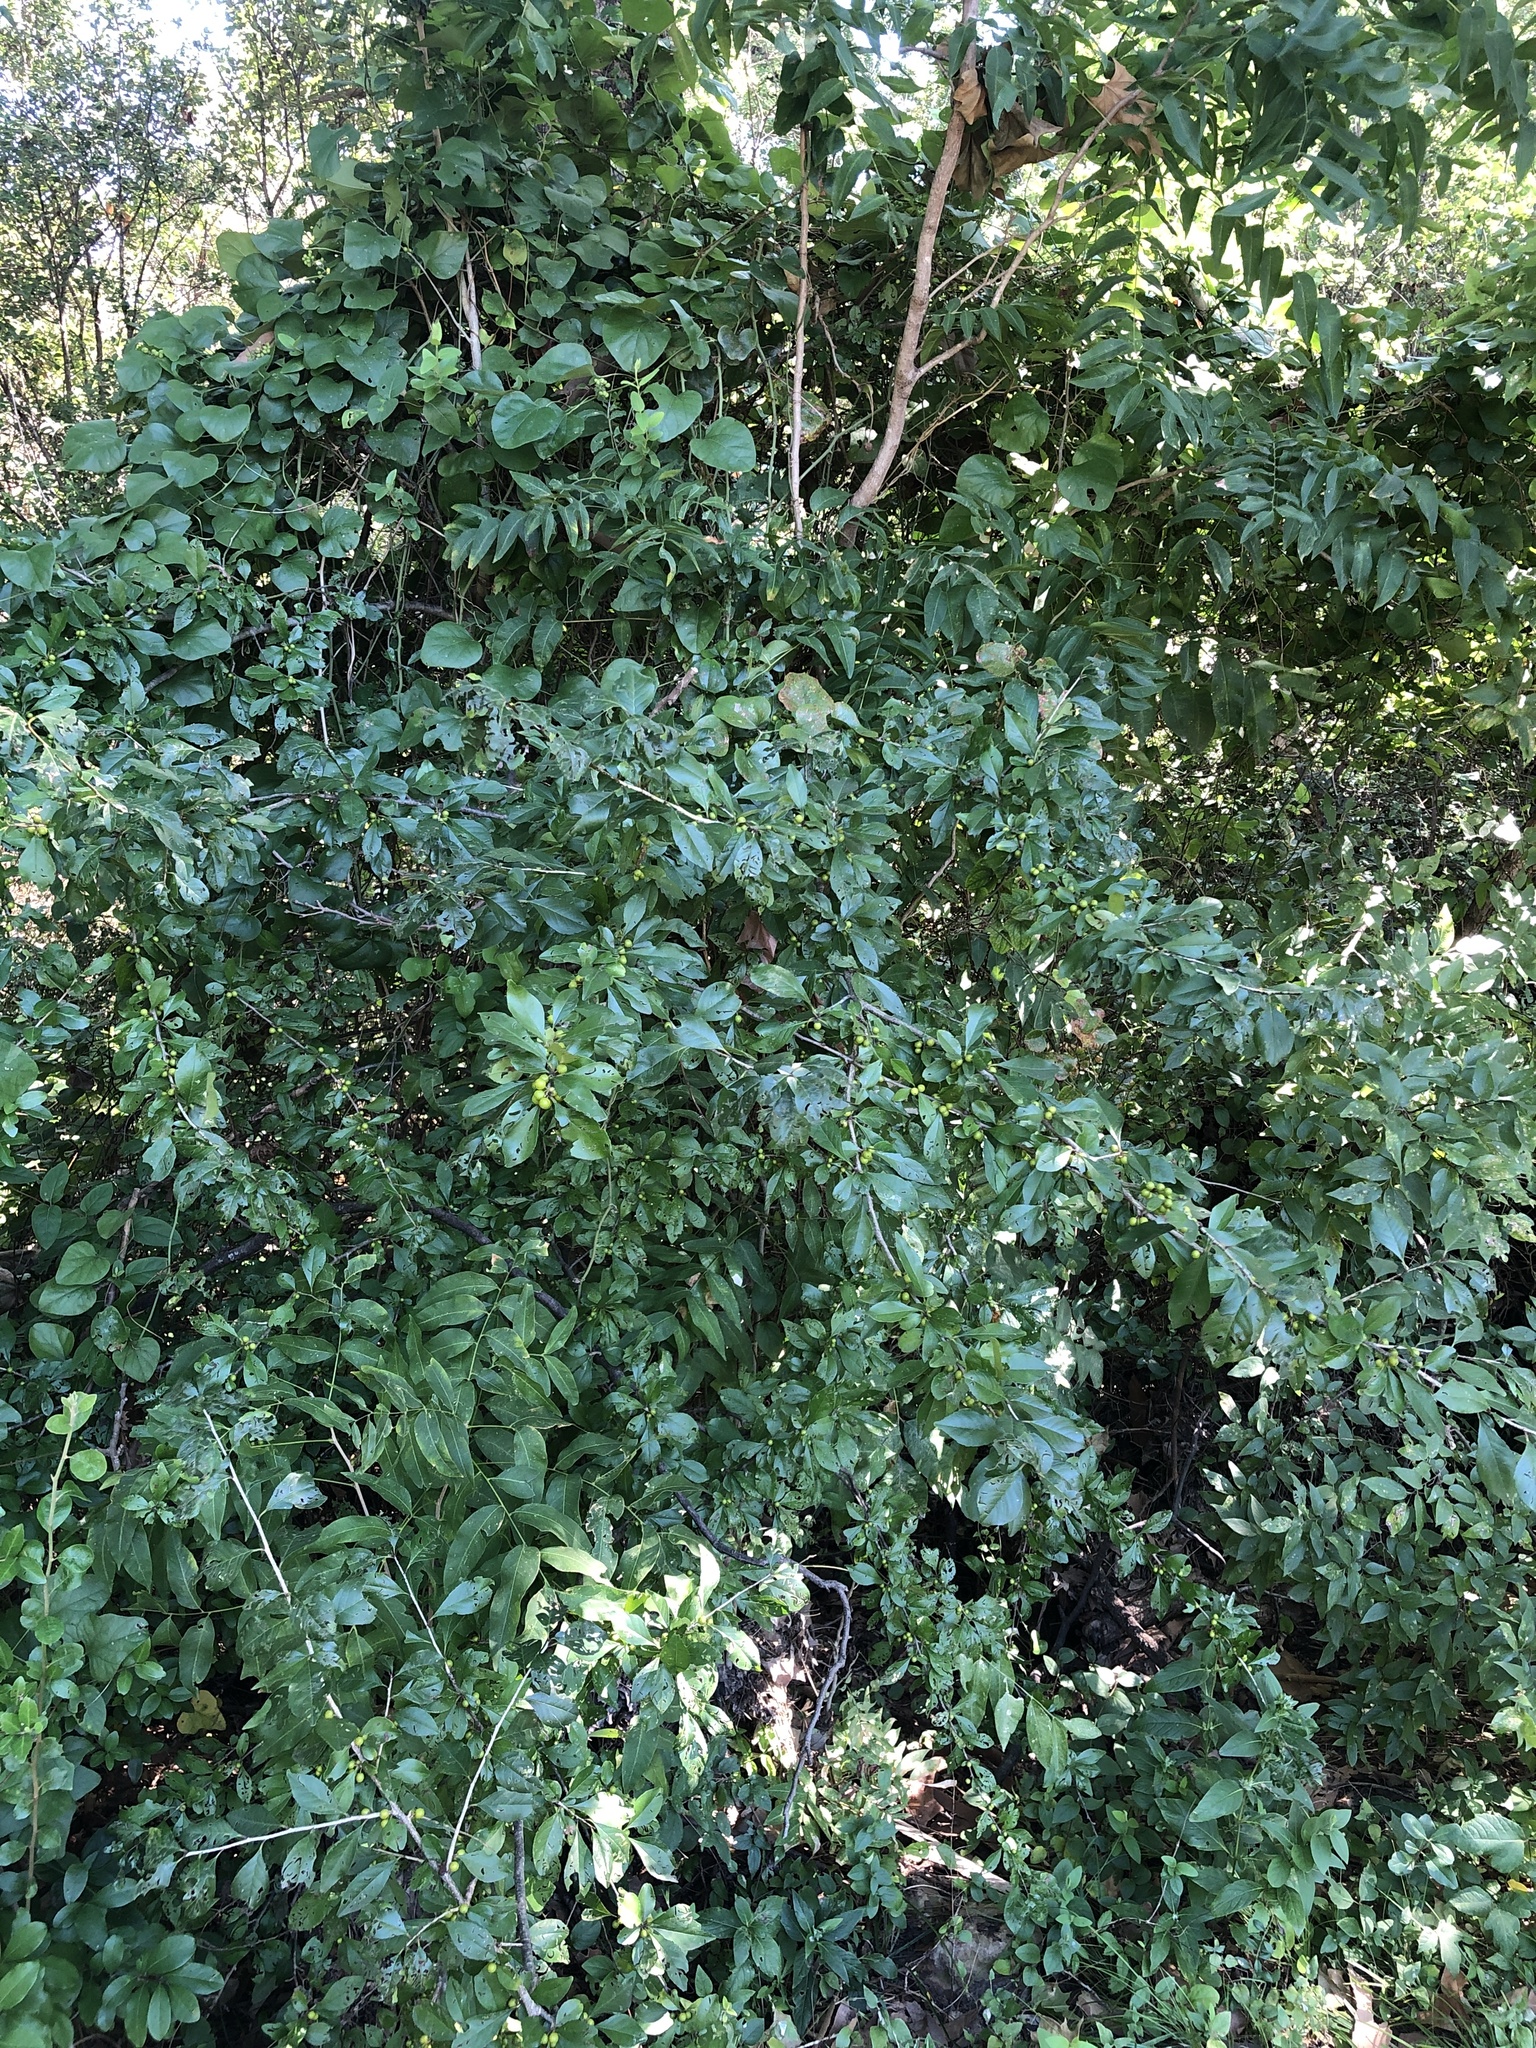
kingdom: Plantae
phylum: Tracheophyta
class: Magnoliopsida
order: Aquifoliales
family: Aquifoliaceae
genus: Ilex
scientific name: Ilex decidua
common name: Possum-haw
